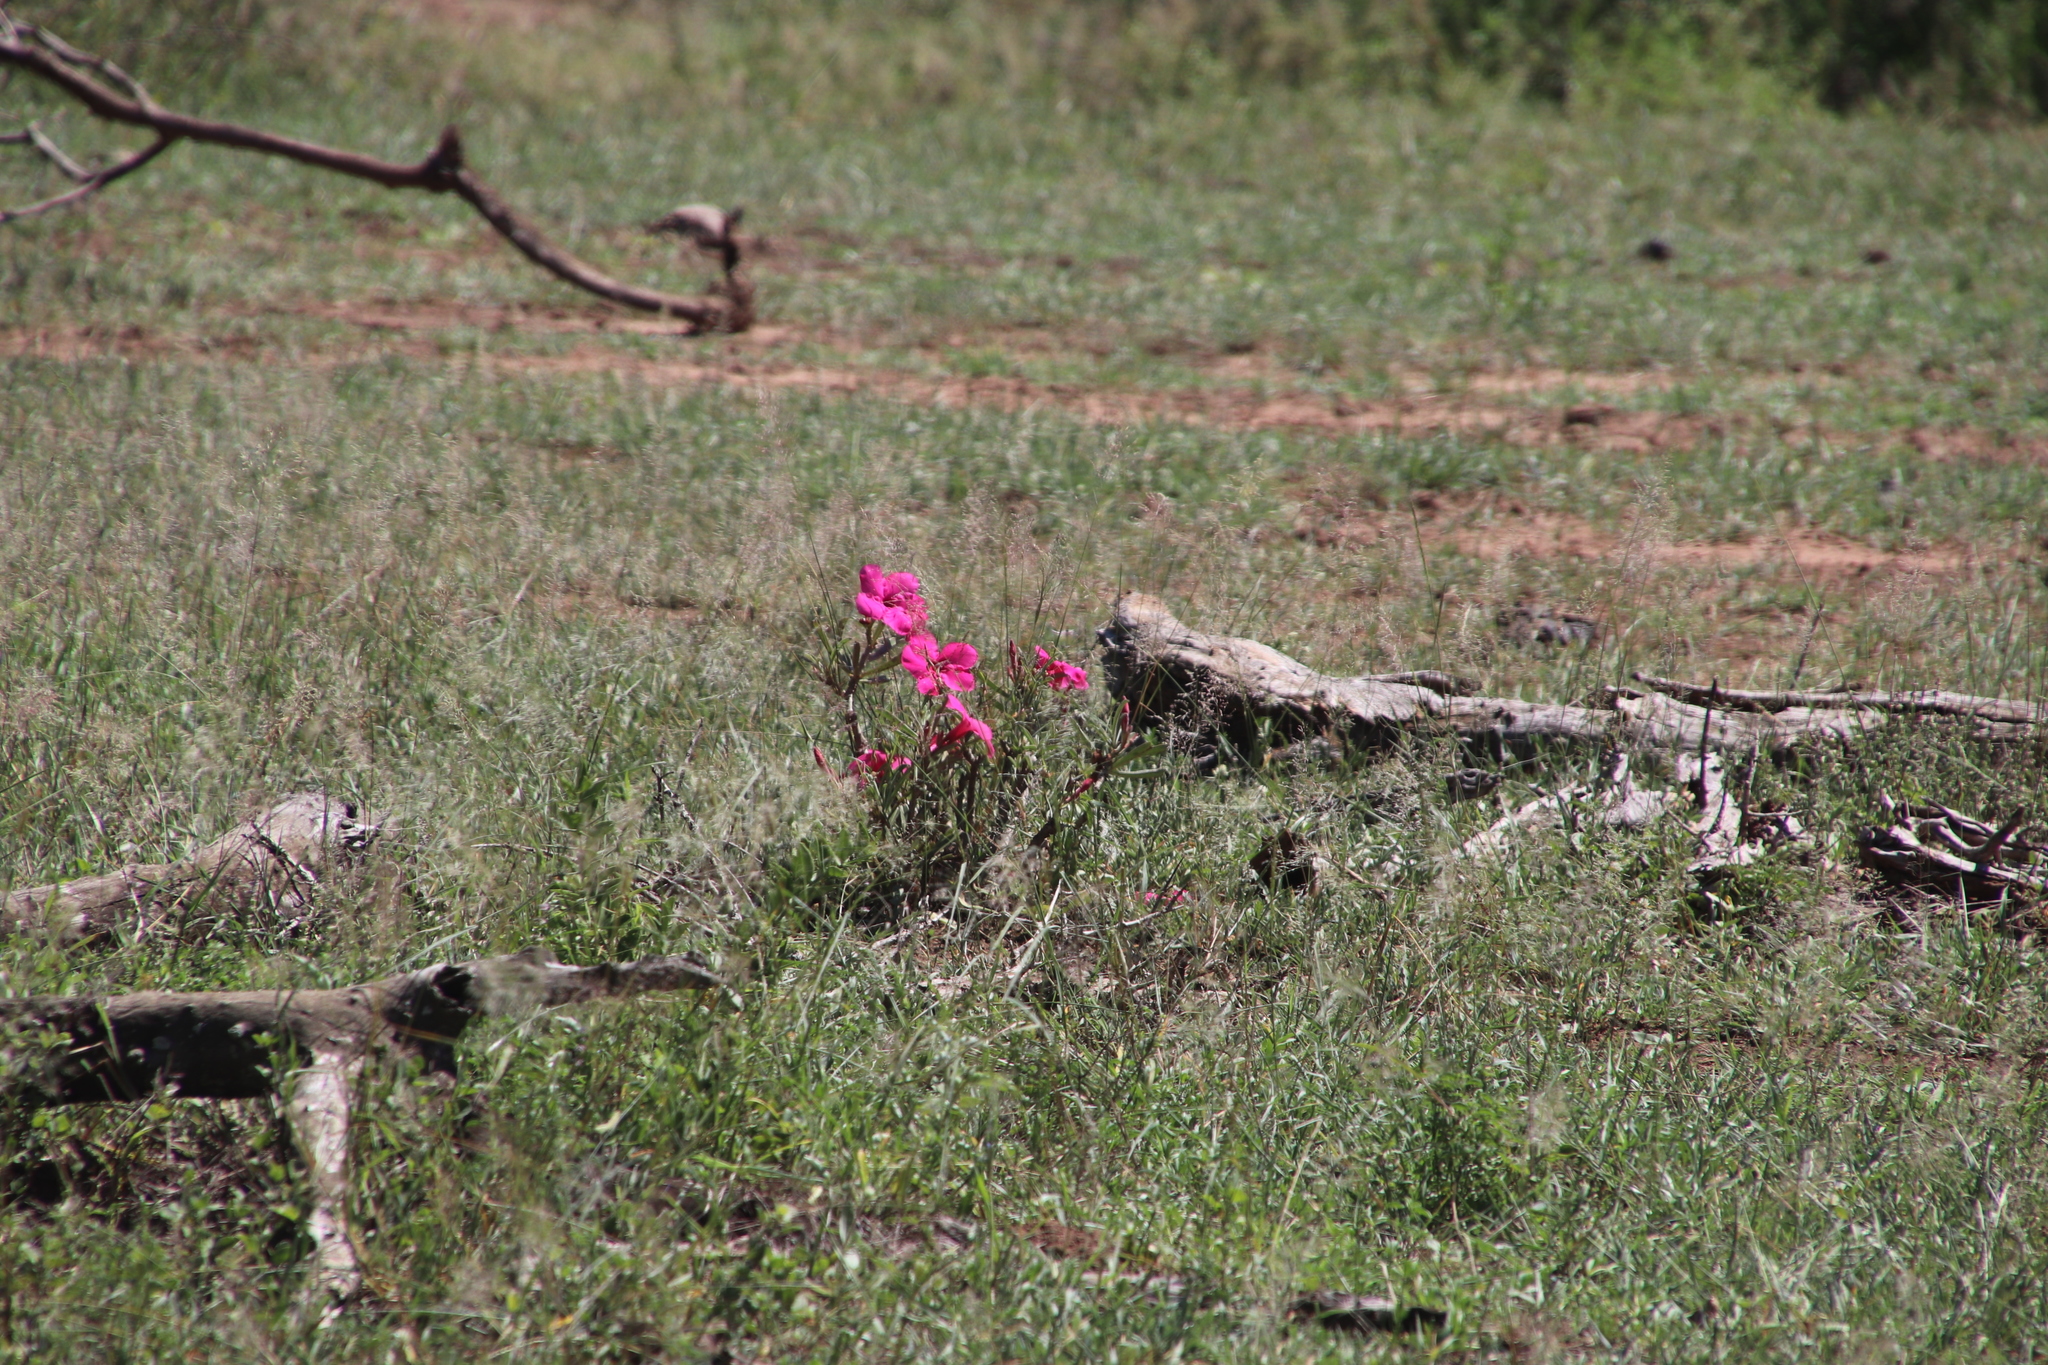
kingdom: Plantae
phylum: Tracheophyta
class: Magnoliopsida
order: Gentianales
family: Apocynaceae
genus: Adenium
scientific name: Adenium obesum
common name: Desert-rose
